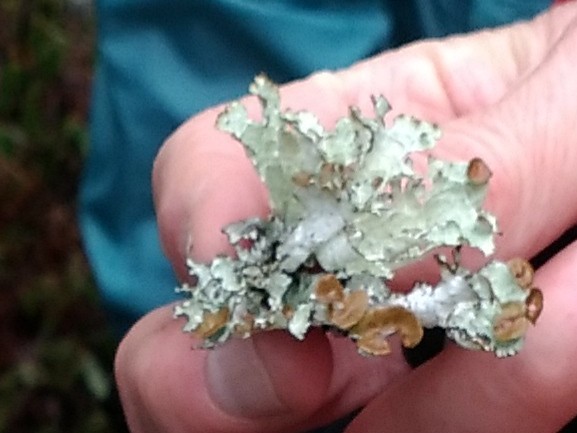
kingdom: Fungi
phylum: Ascomycota
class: Lecanoromycetes
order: Lecanorales
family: Parmeliaceae
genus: Platismatia
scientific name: Platismatia tuckermanii
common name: Crumpled rag lichen
